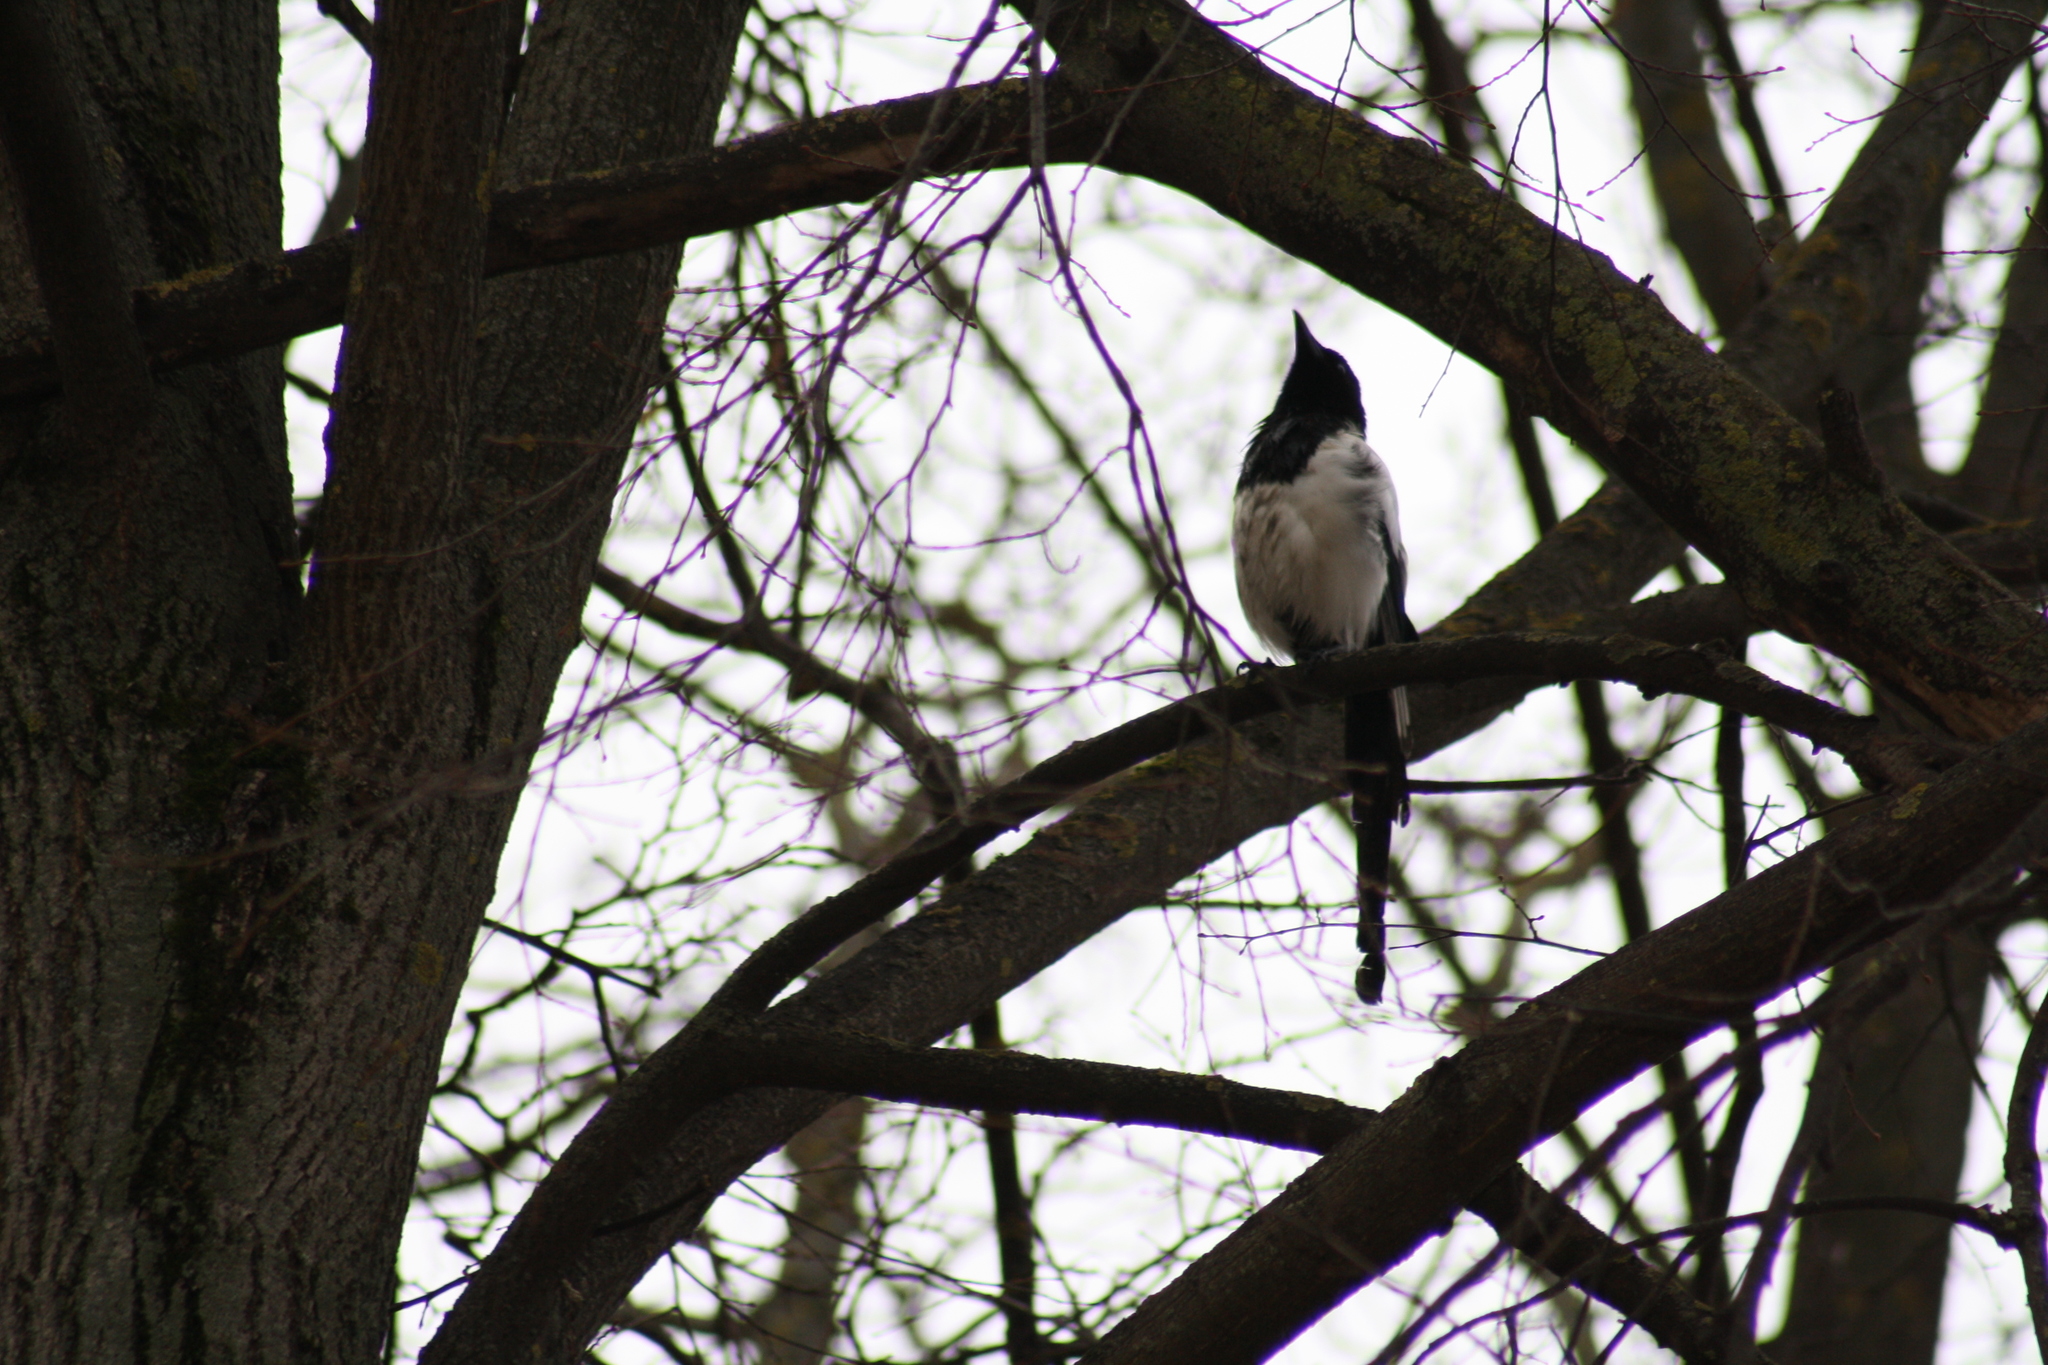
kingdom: Animalia
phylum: Chordata
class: Aves
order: Passeriformes
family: Corvidae
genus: Pica
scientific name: Pica pica
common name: Eurasian magpie
